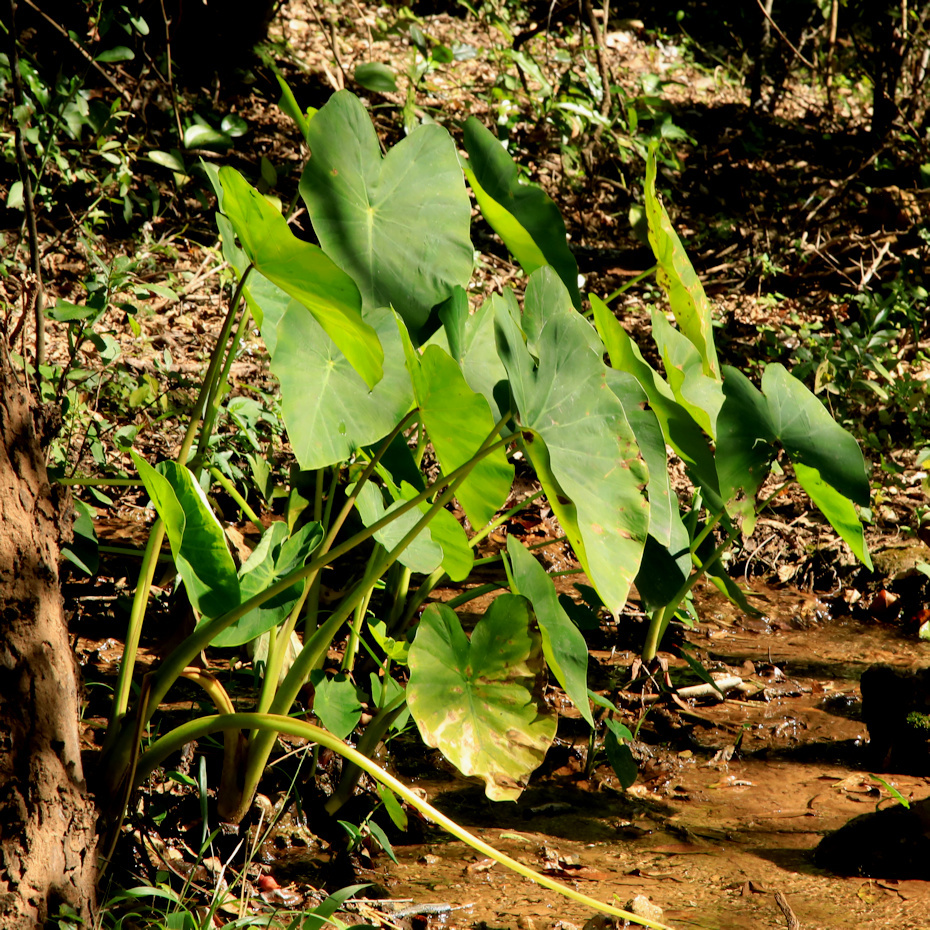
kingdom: Plantae
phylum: Tracheophyta
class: Liliopsida
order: Alismatales
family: Araceae
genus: Colocasia
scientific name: Colocasia esculenta
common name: Taro
